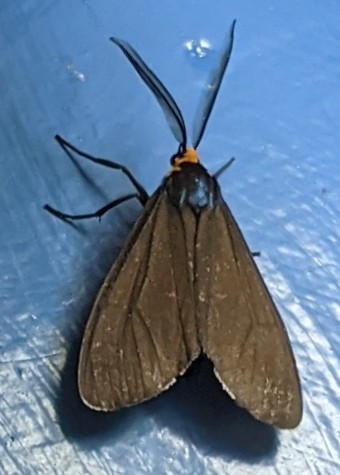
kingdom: Animalia
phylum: Arthropoda
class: Insecta
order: Lepidoptera
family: Erebidae
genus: Ctenucha
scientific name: Ctenucha virginica
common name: Virginia ctenucha moth
